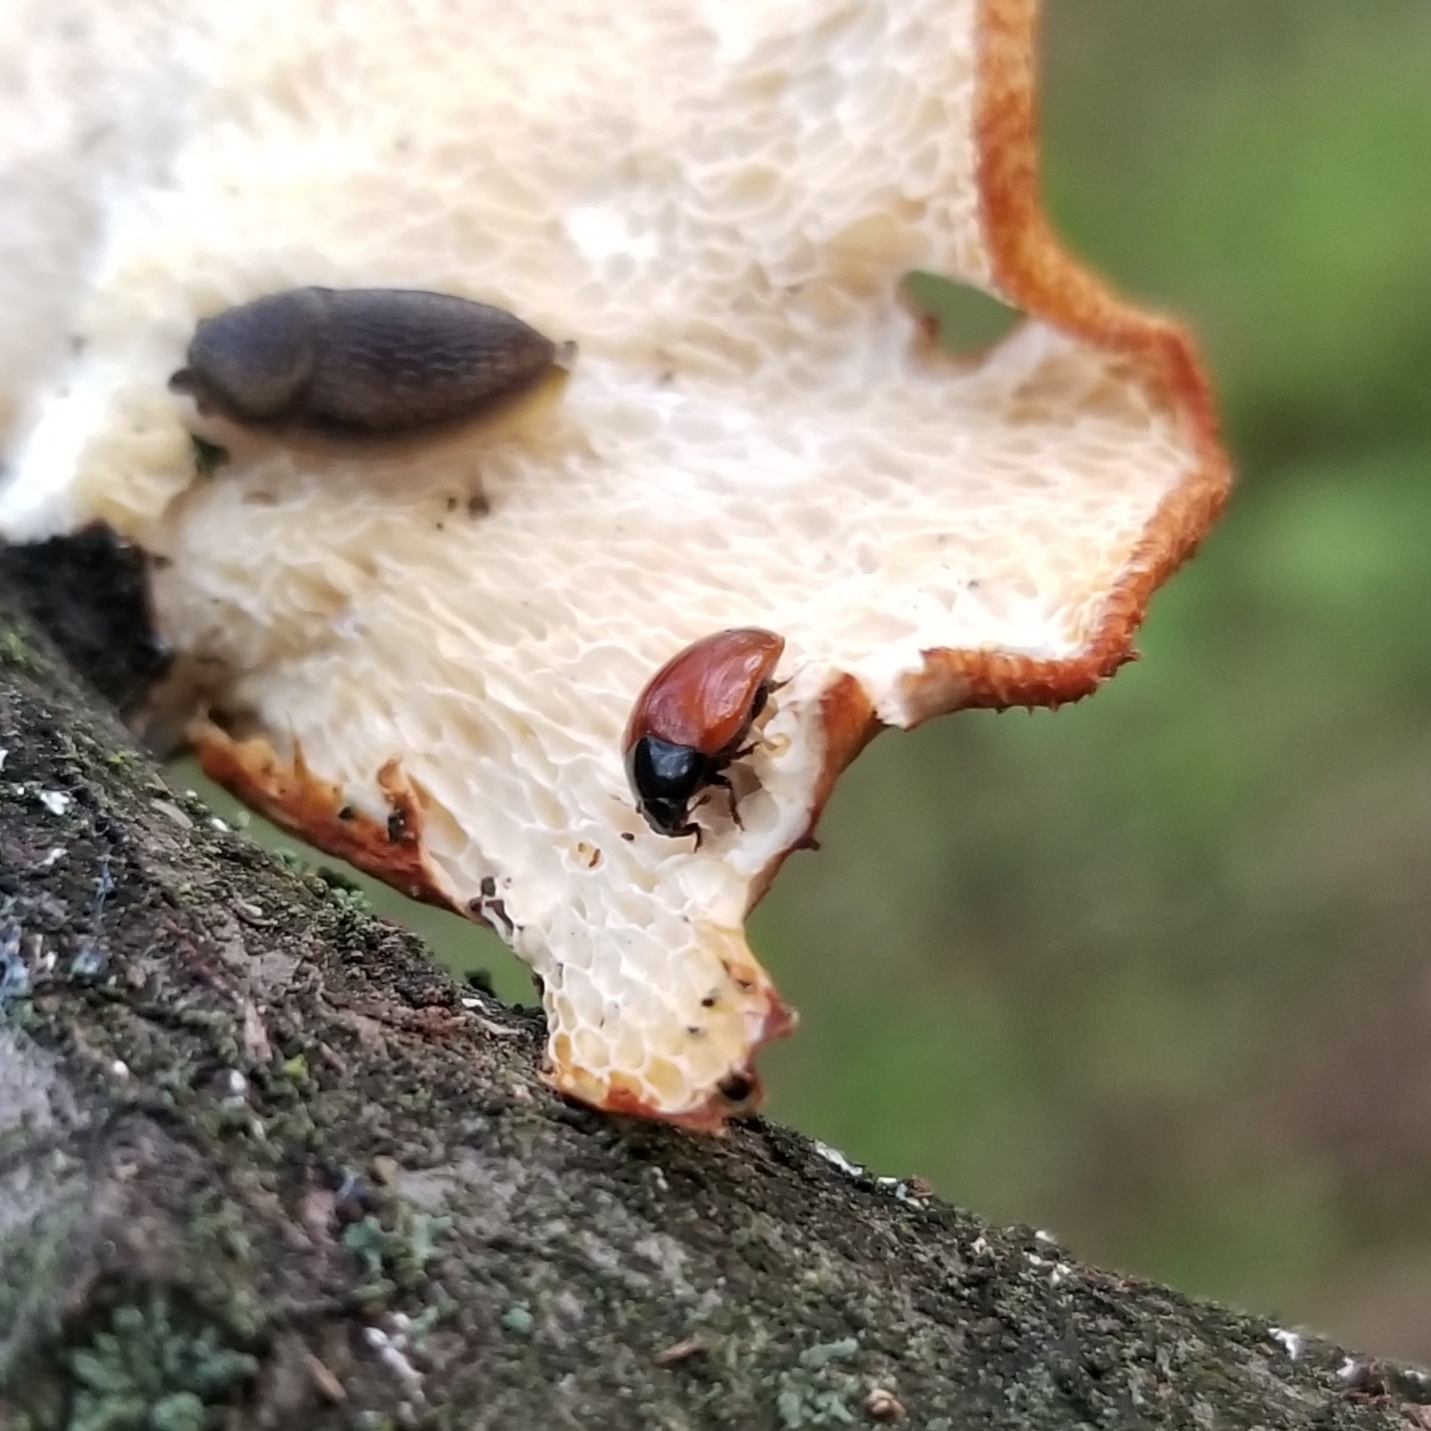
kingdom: Animalia
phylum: Arthropoda
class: Insecta
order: Coleoptera
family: Erotylidae
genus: Tritoma
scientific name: Tritoma sanguinipennis
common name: Red-winged tritoma
